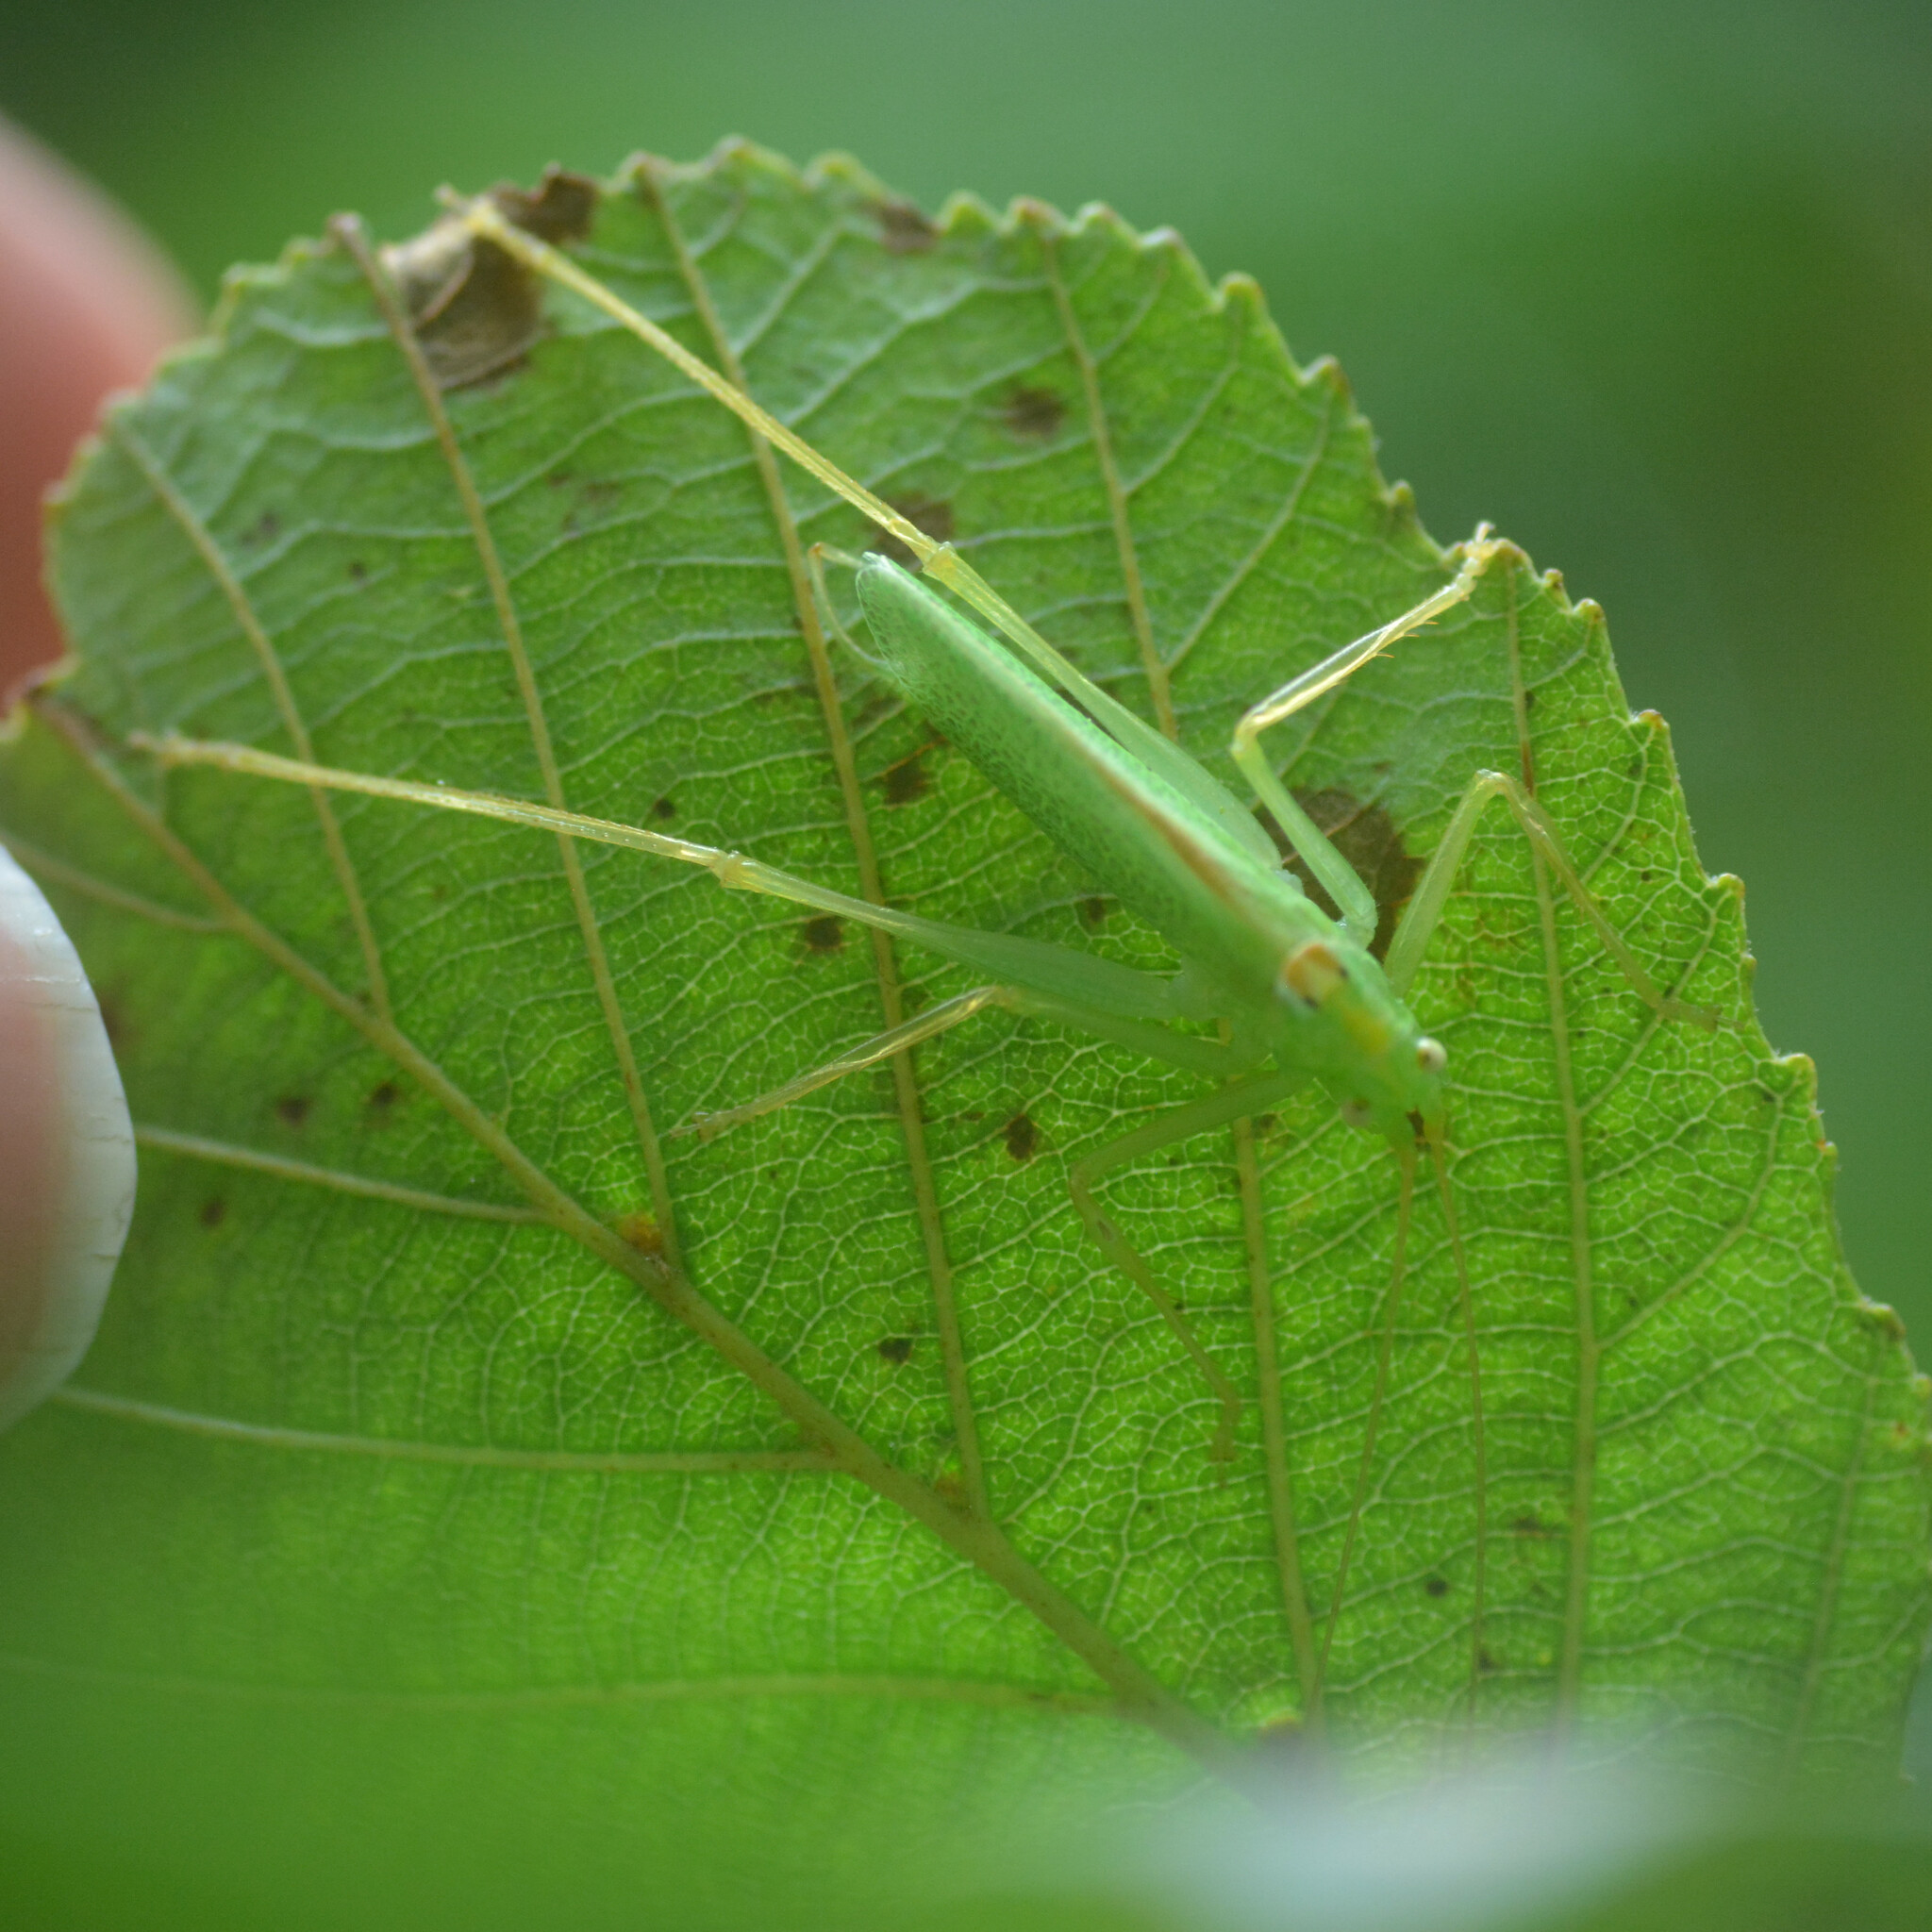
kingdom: Animalia
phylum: Arthropoda
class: Insecta
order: Orthoptera
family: Tettigoniidae
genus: Meconema
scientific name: Meconema thalassinum
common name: Oak bush-cricket
